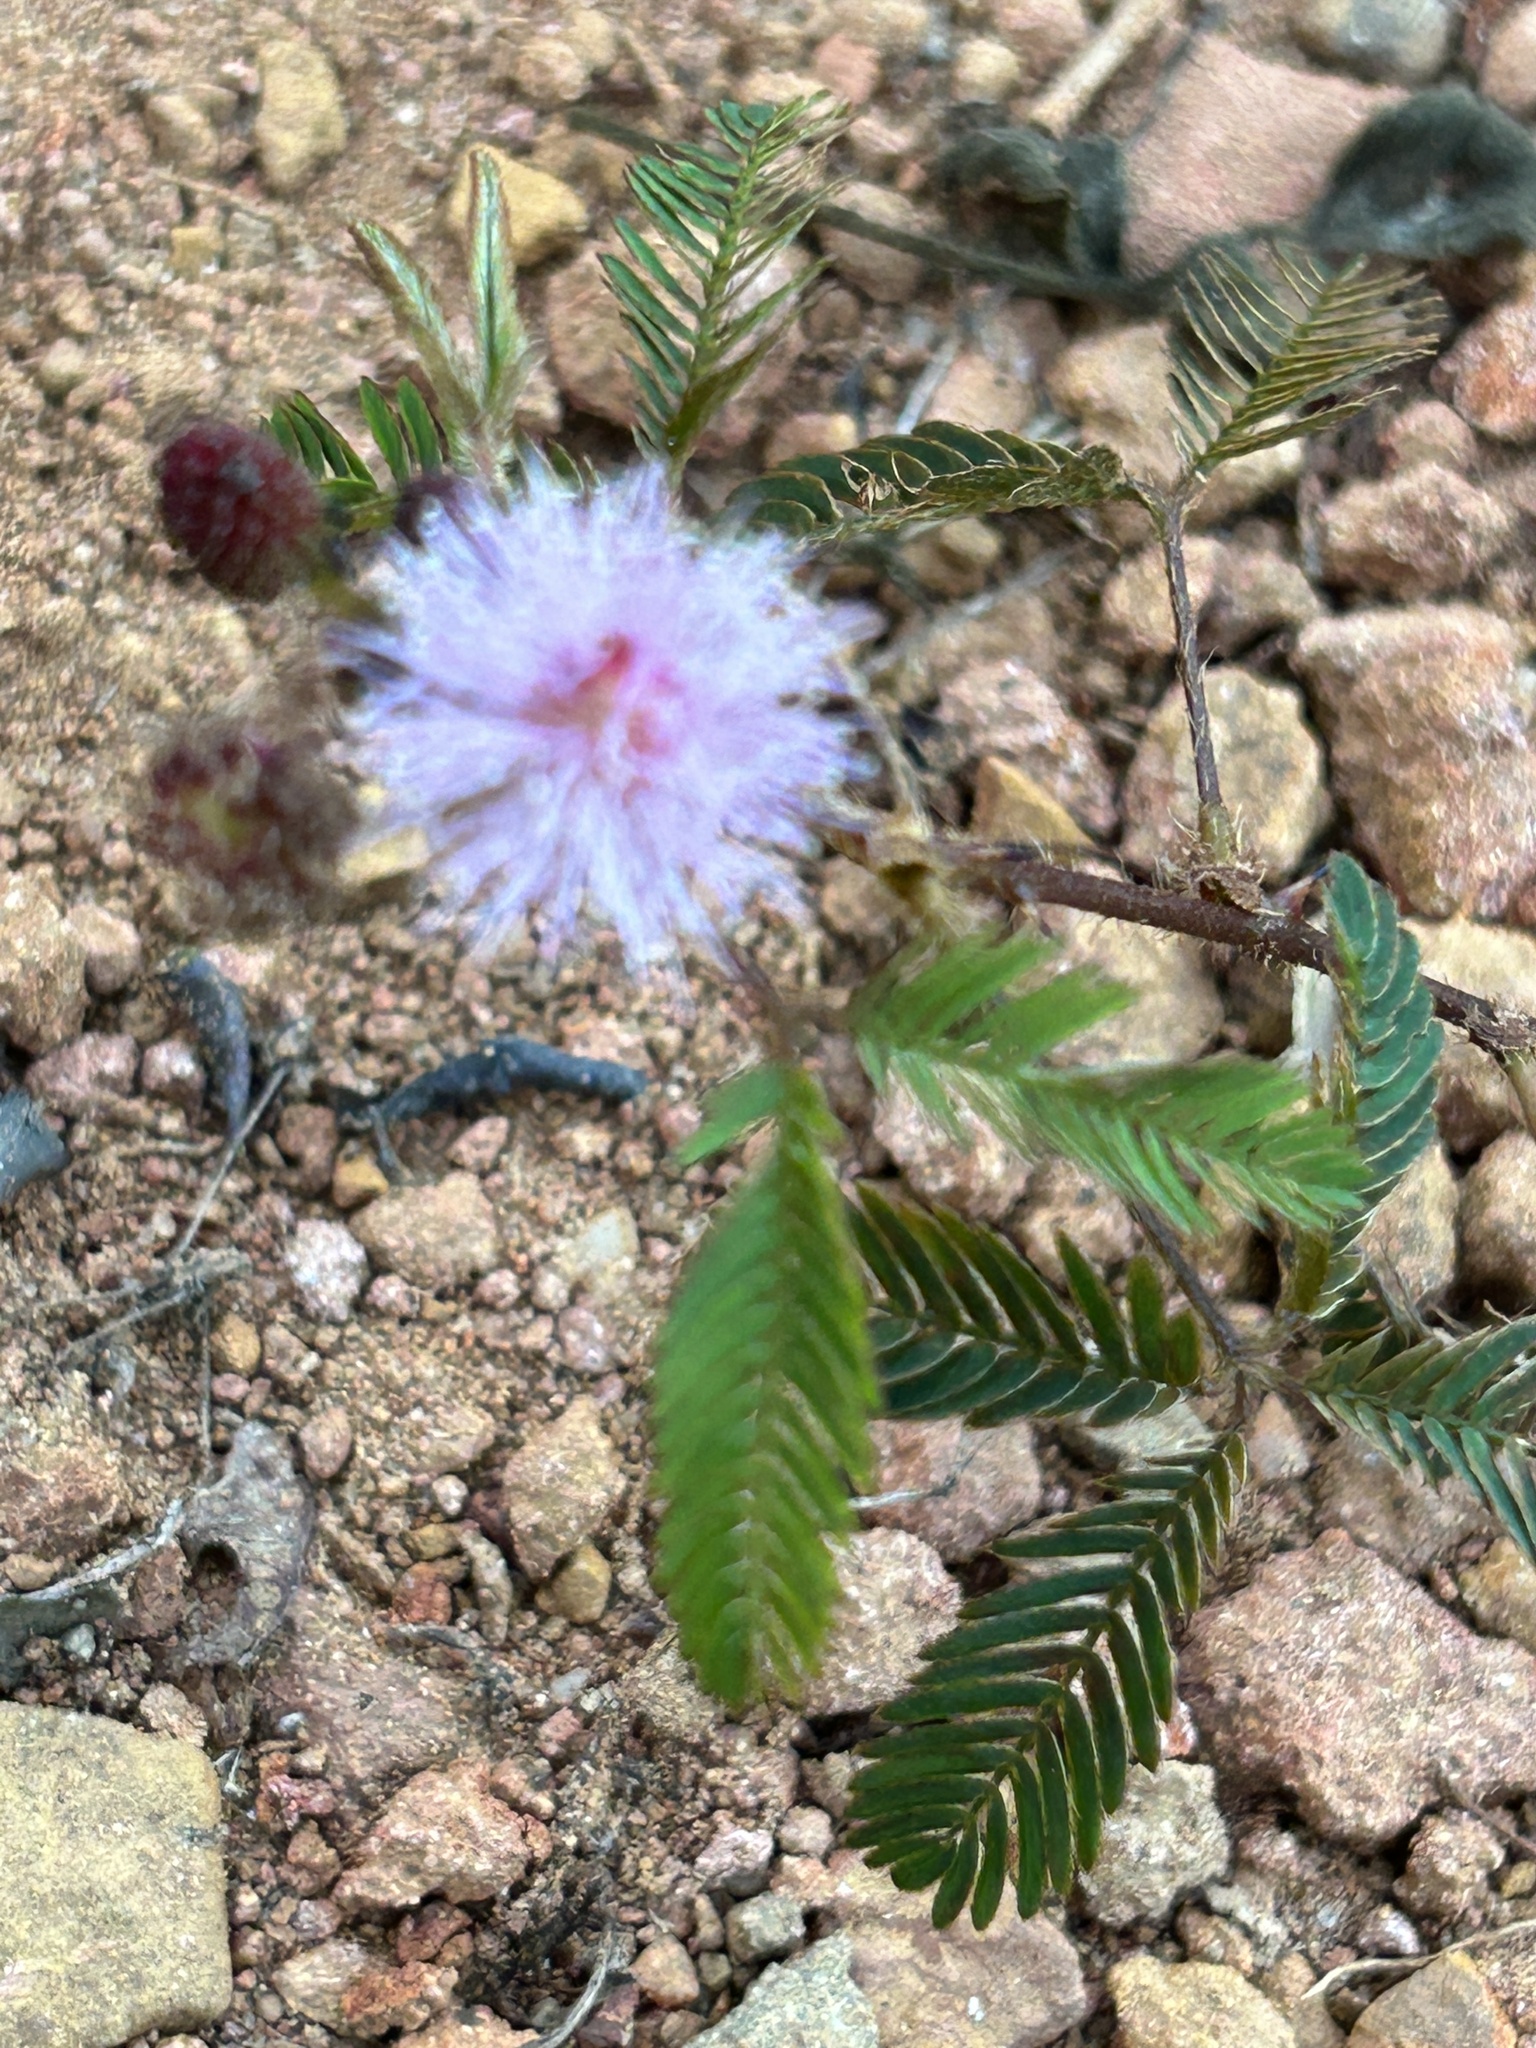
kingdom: Plantae
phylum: Tracheophyta
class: Magnoliopsida
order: Fabales
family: Fabaceae
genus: Mimosa
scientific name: Mimosa pudica
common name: Sensitive plant
